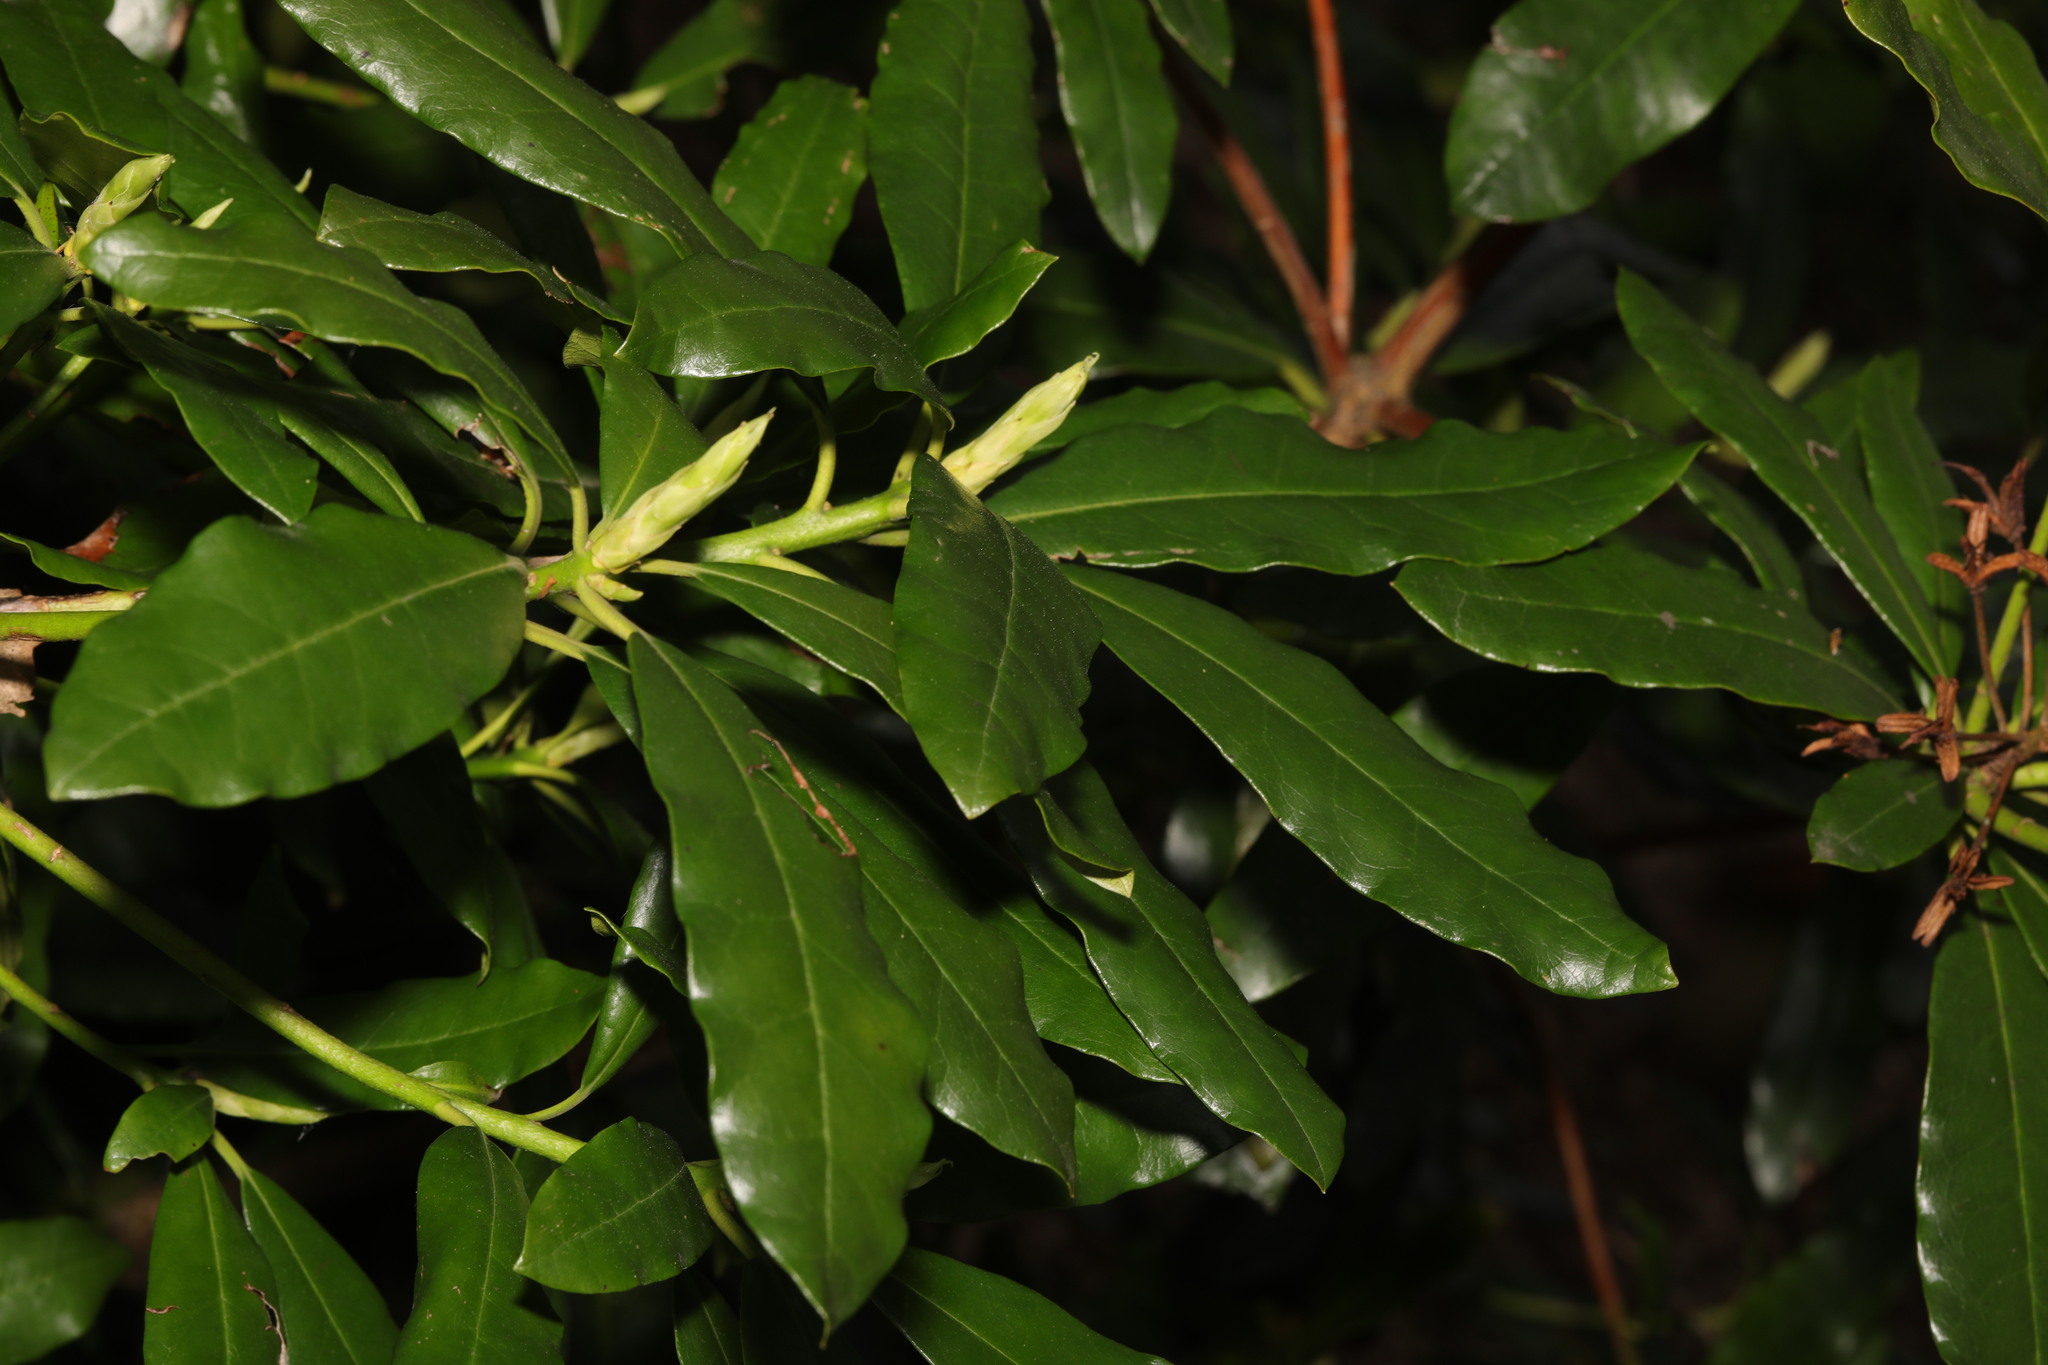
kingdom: Plantae
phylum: Tracheophyta
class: Magnoliopsida
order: Ericales
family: Ericaceae
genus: Rhododendron
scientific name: Rhododendron ponticum
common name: Rhododendron
